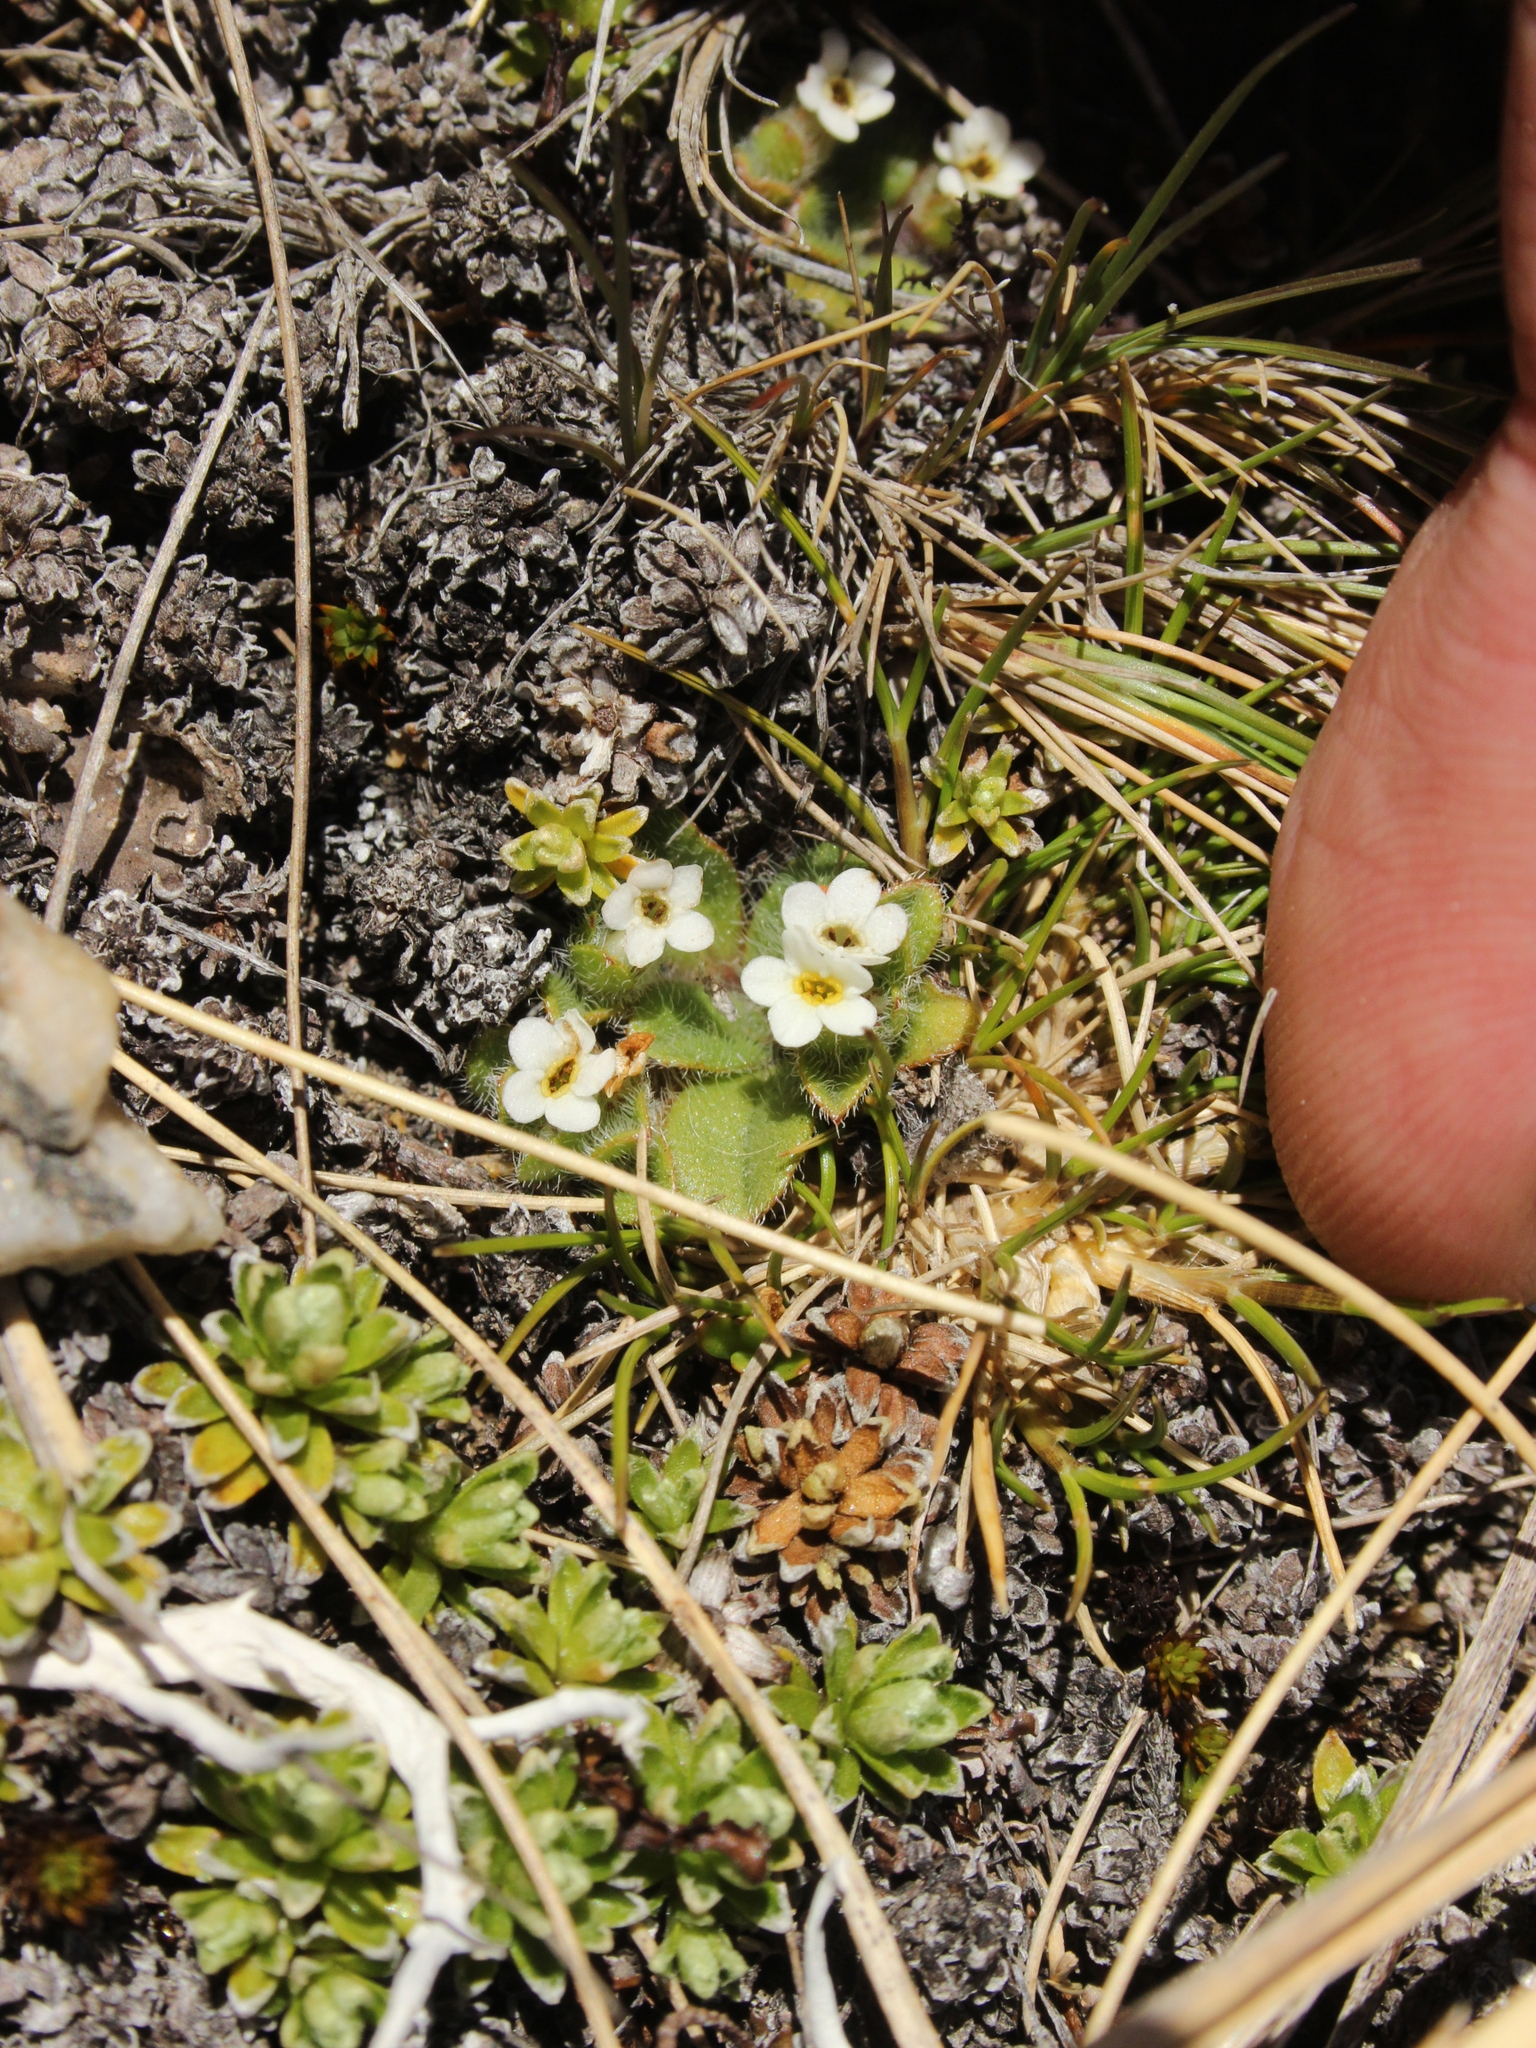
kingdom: Plantae
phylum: Tracheophyta
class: Magnoliopsida
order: Boraginales
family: Boraginaceae
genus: Myosotis
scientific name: Myosotis antarctica
